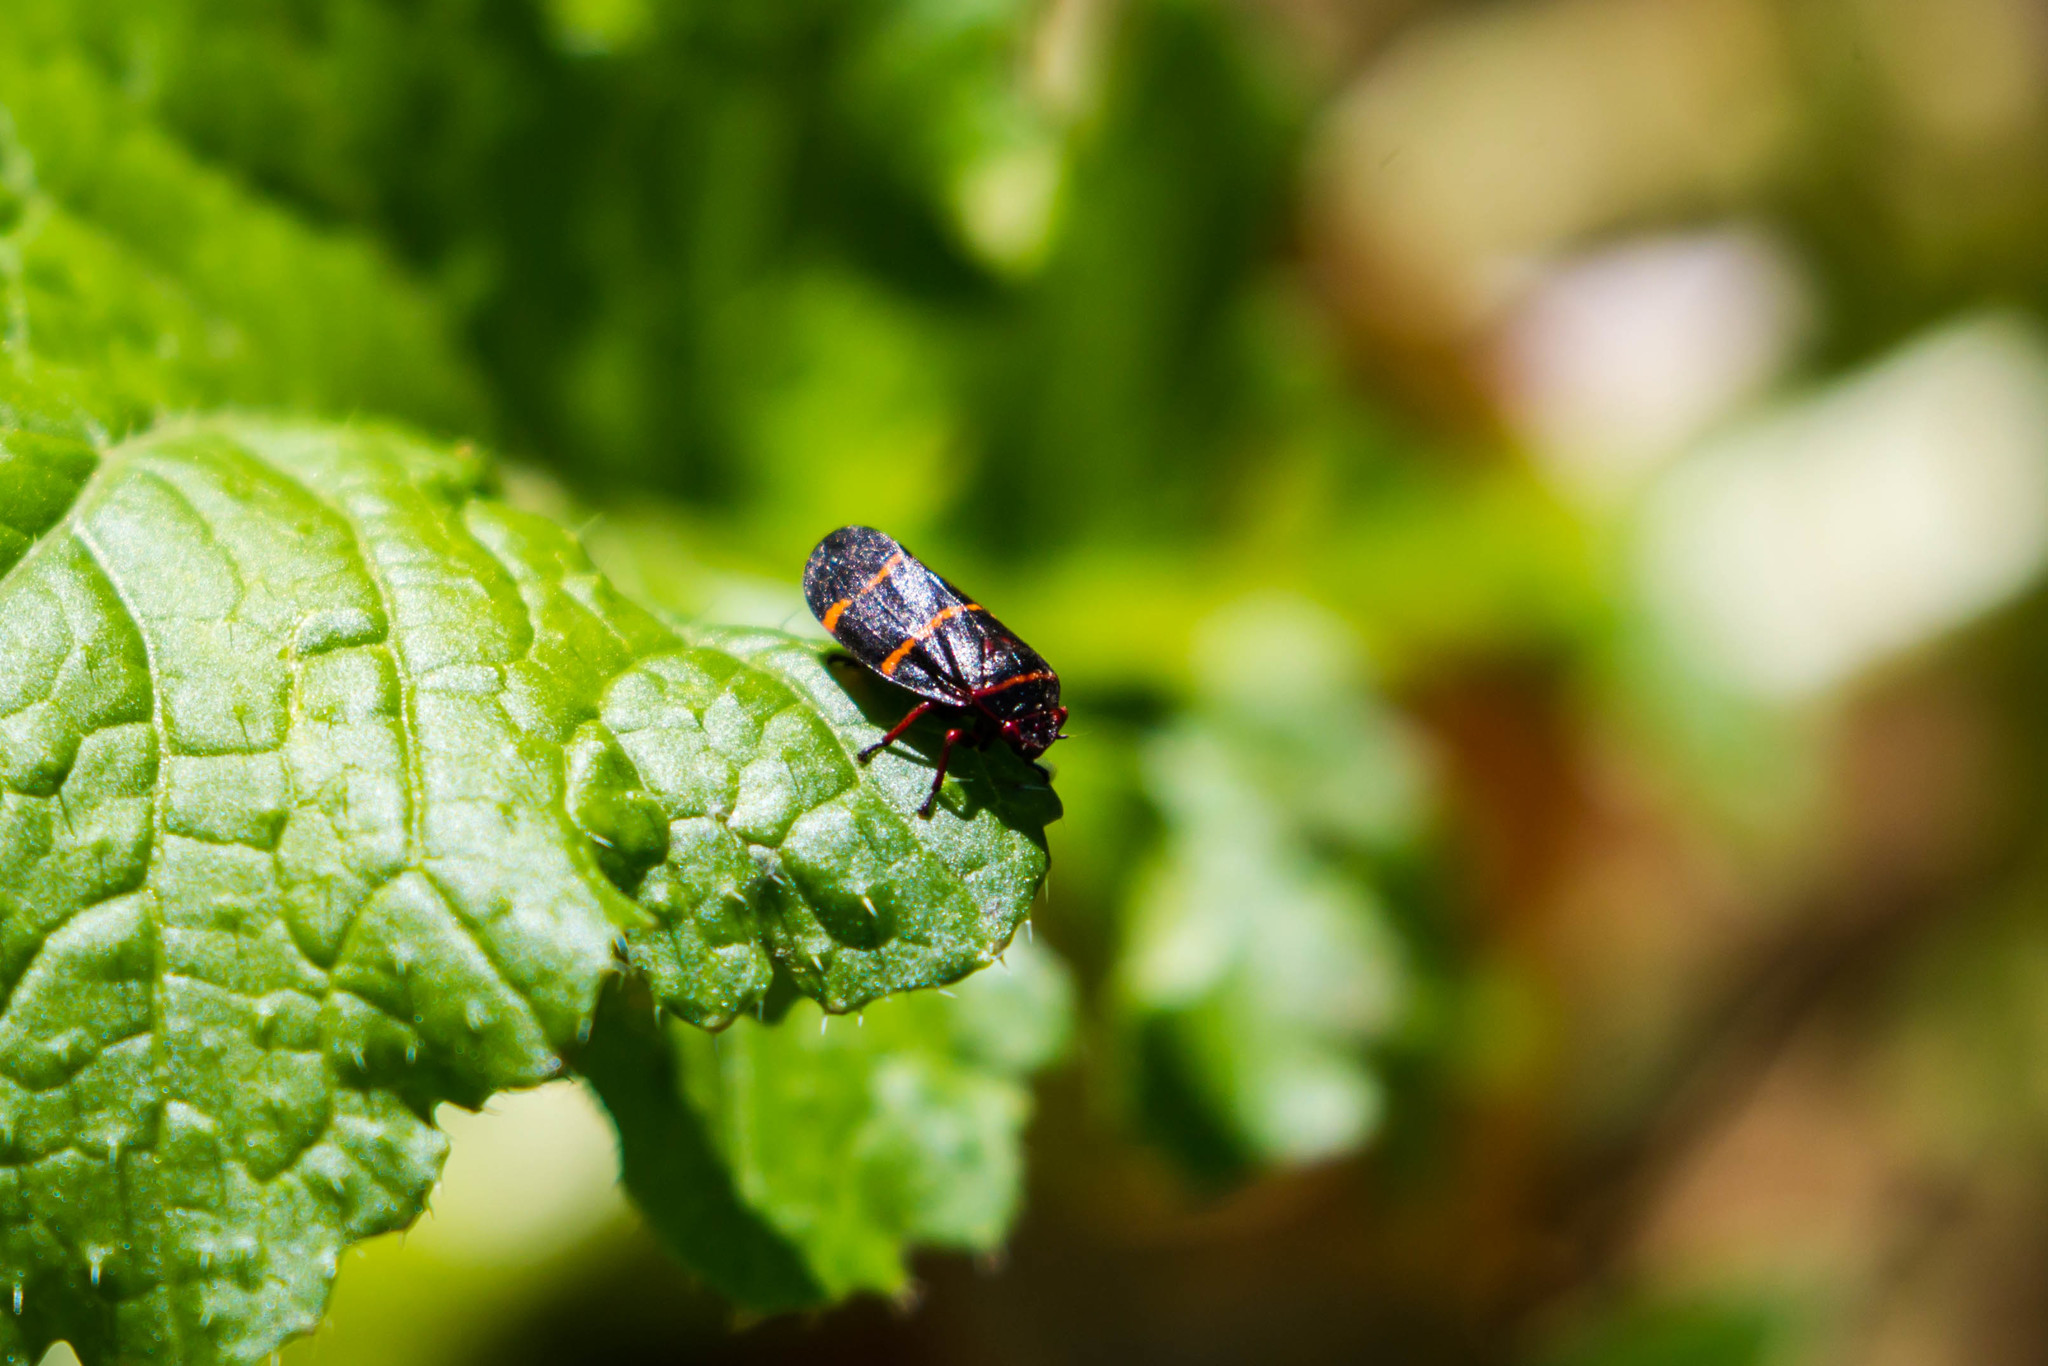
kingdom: Animalia
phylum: Arthropoda
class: Insecta
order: Hemiptera
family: Cercopidae
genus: Prosapia
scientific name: Prosapia bicincta
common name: Twolined spittlebug
